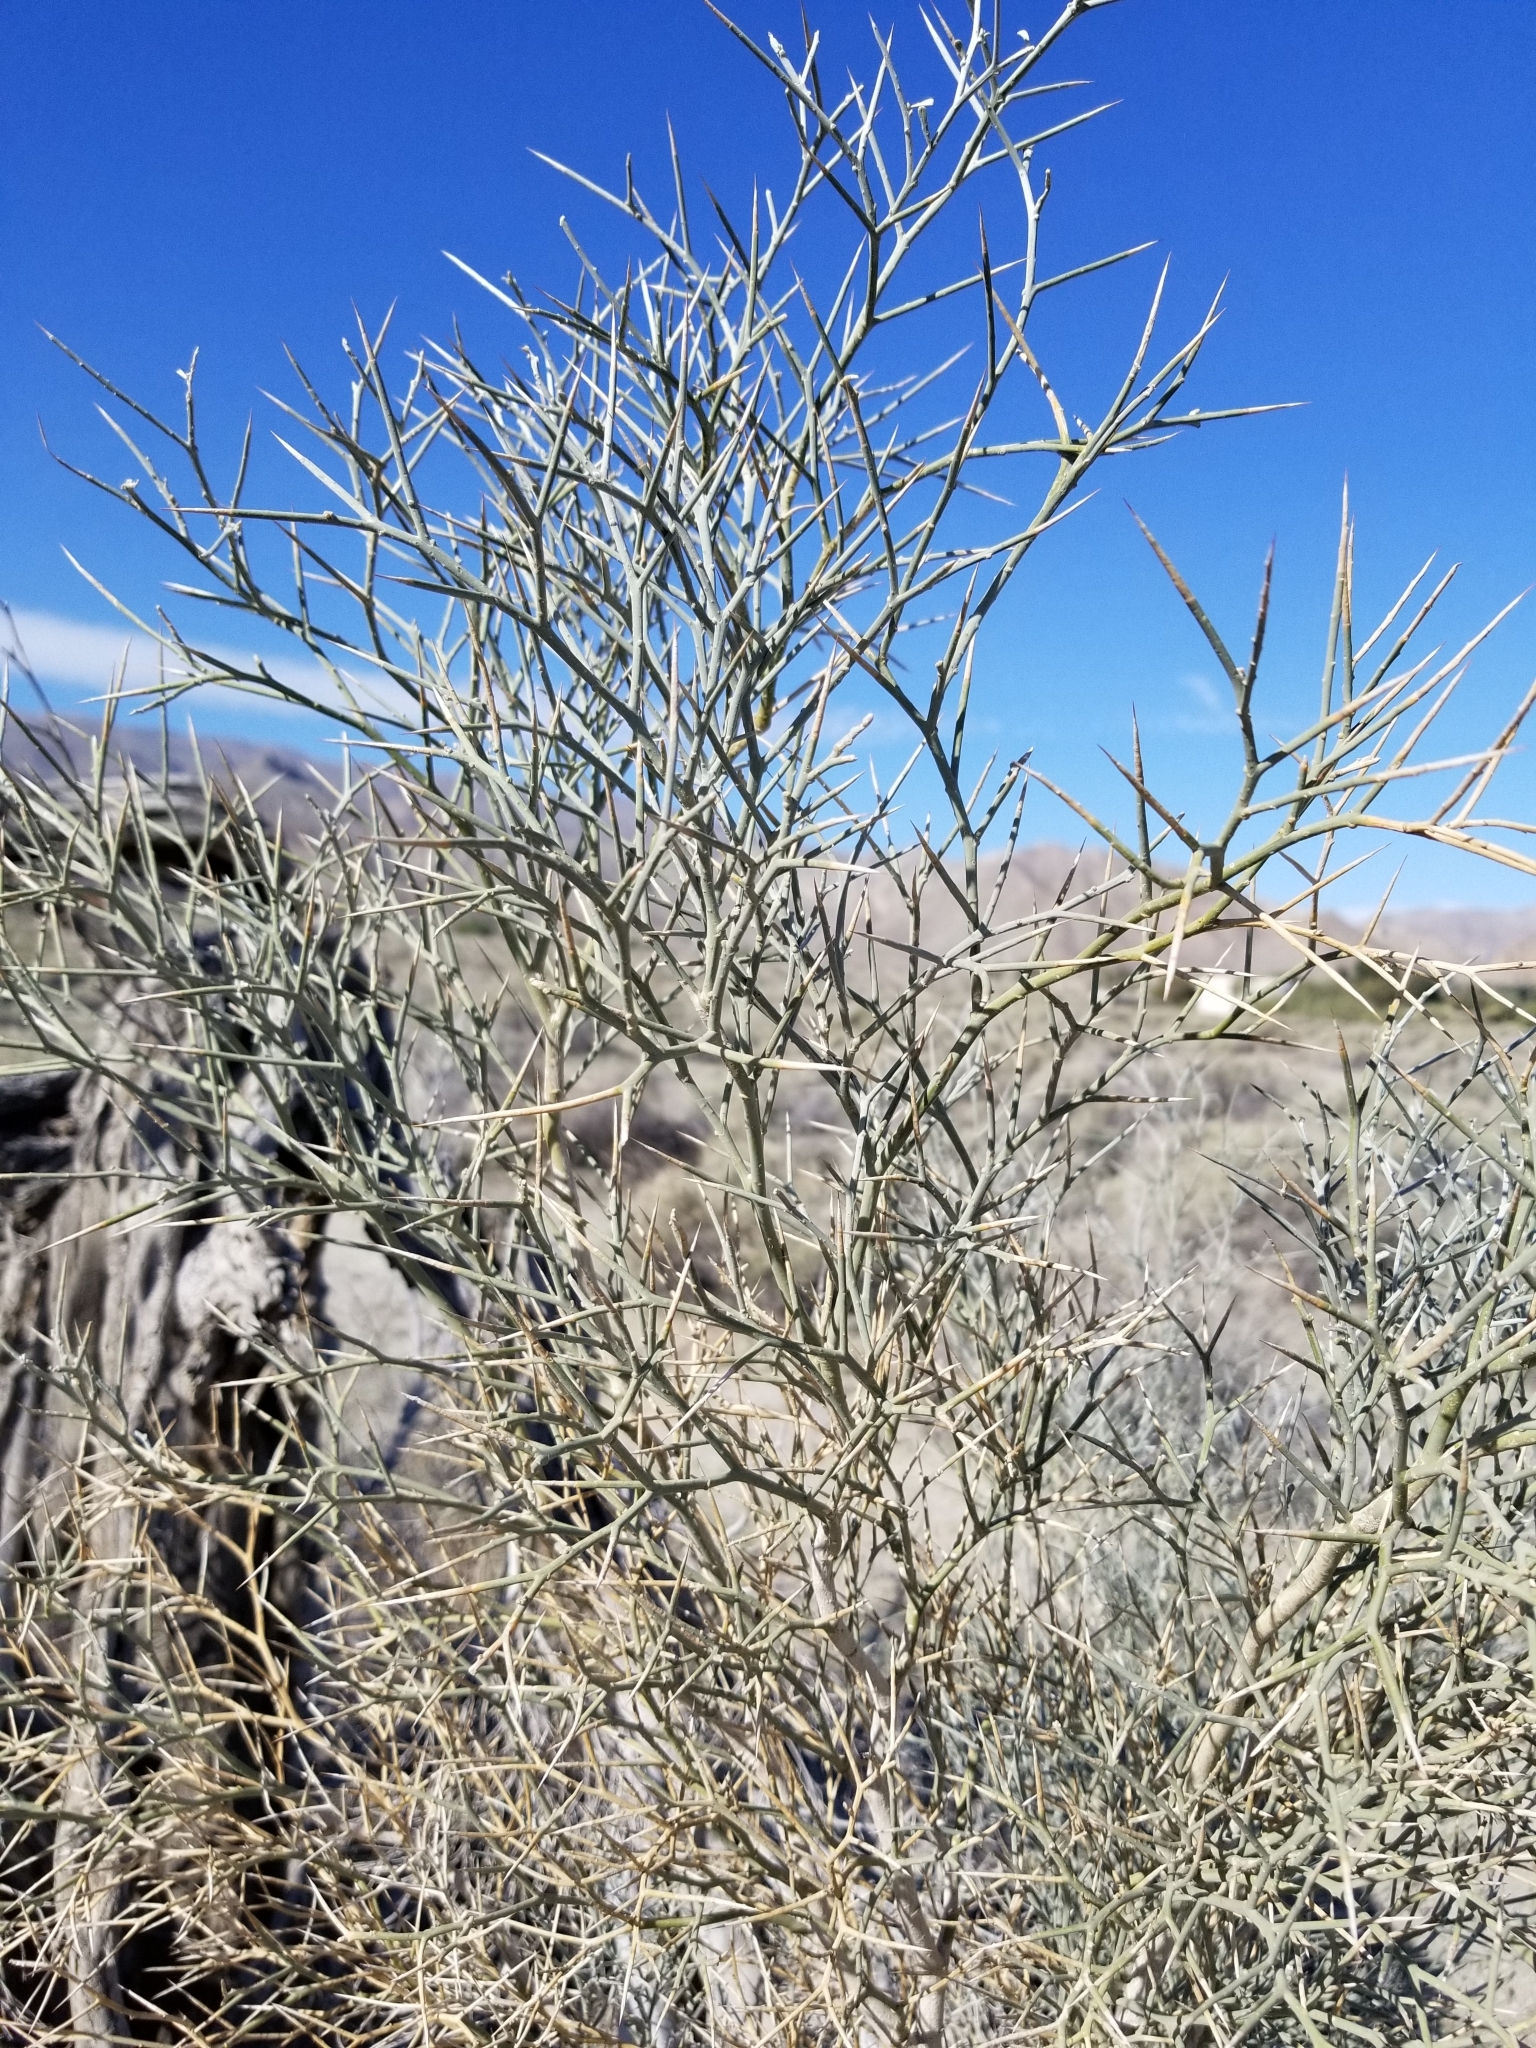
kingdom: Plantae
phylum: Tracheophyta
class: Magnoliopsida
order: Fabales
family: Fabaceae
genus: Psorothamnus
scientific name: Psorothamnus spinosus
